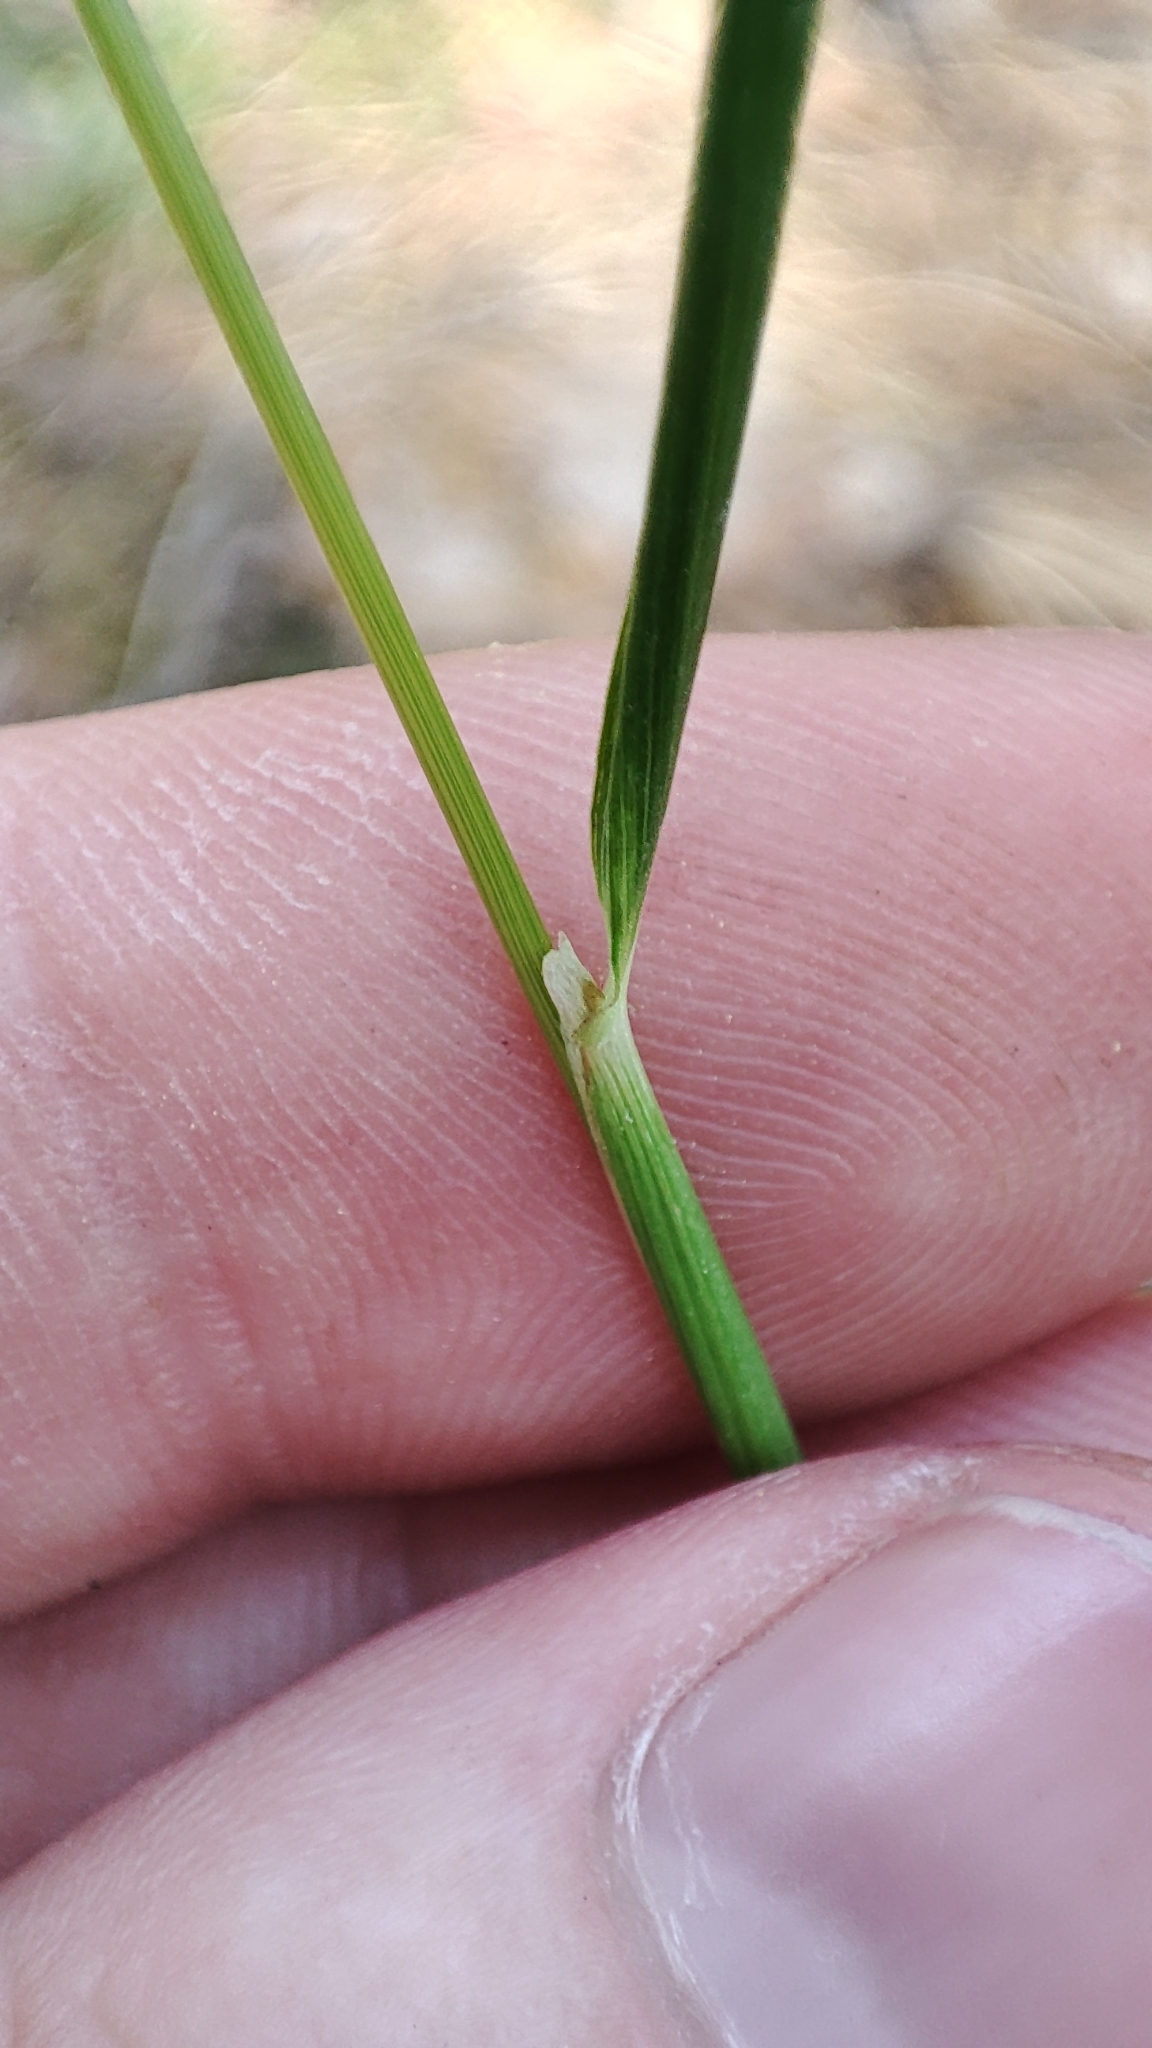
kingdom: Plantae
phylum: Tracheophyta
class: Liliopsida
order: Poales
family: Poaceae
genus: Calamagrostis
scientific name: Calamagrostis arundinacea
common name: Metskastik
